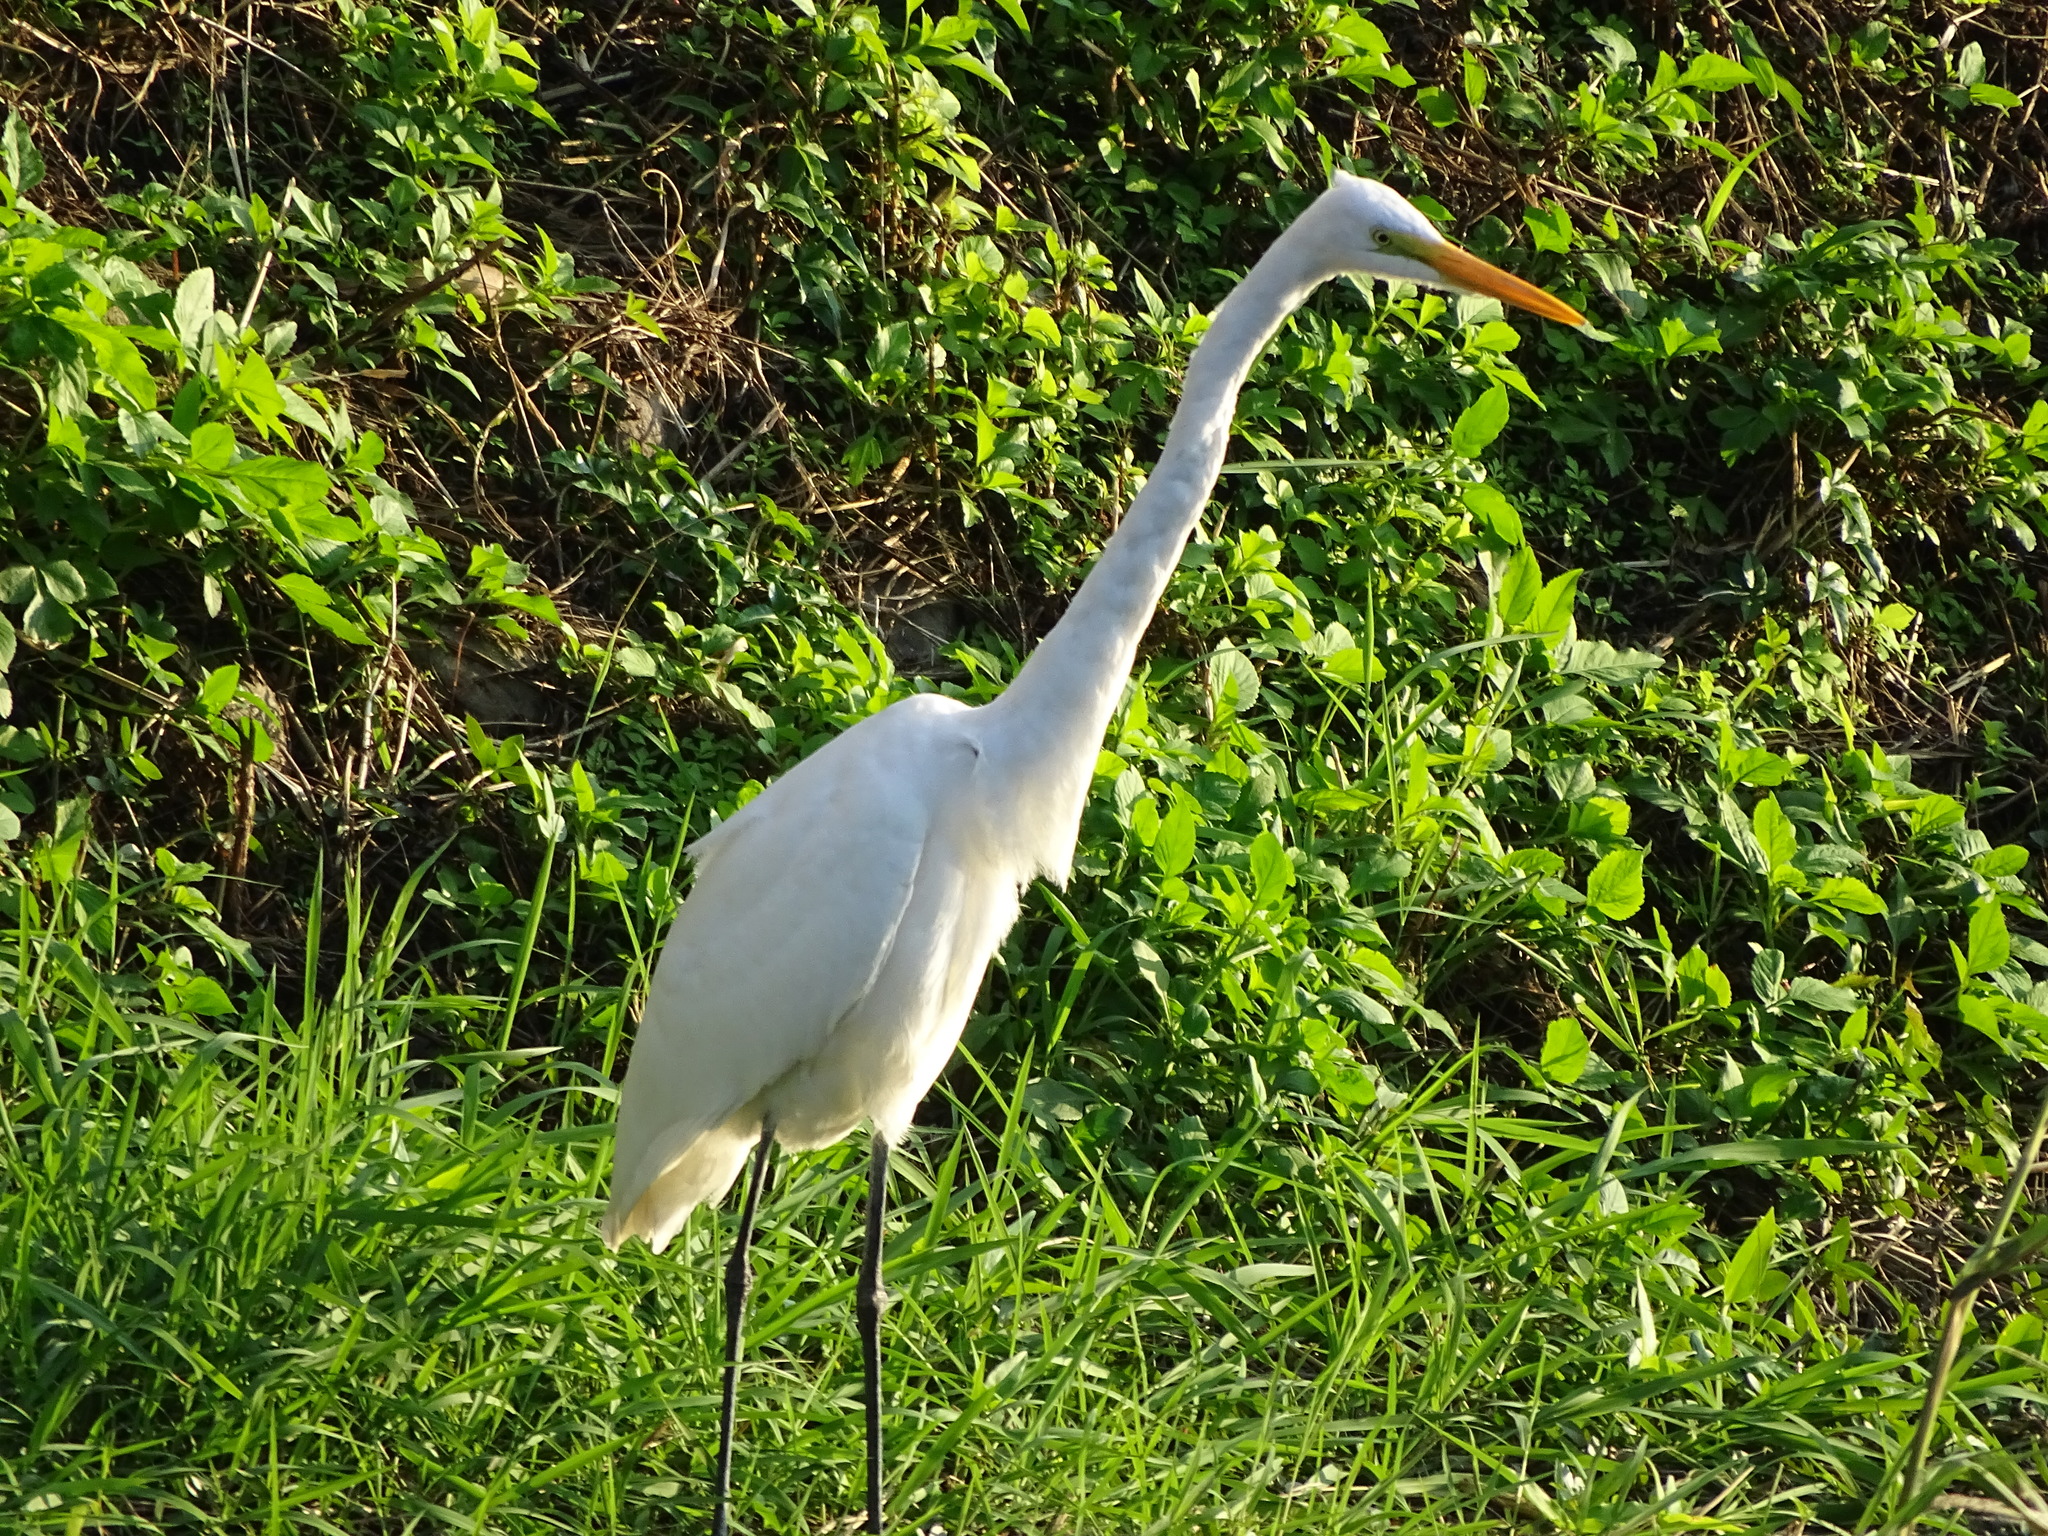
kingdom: Animalia
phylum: Chordata
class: Aves
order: Pelecaniformes
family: Ardeidae
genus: Ardea
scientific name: Ardea alba
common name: Great egret
